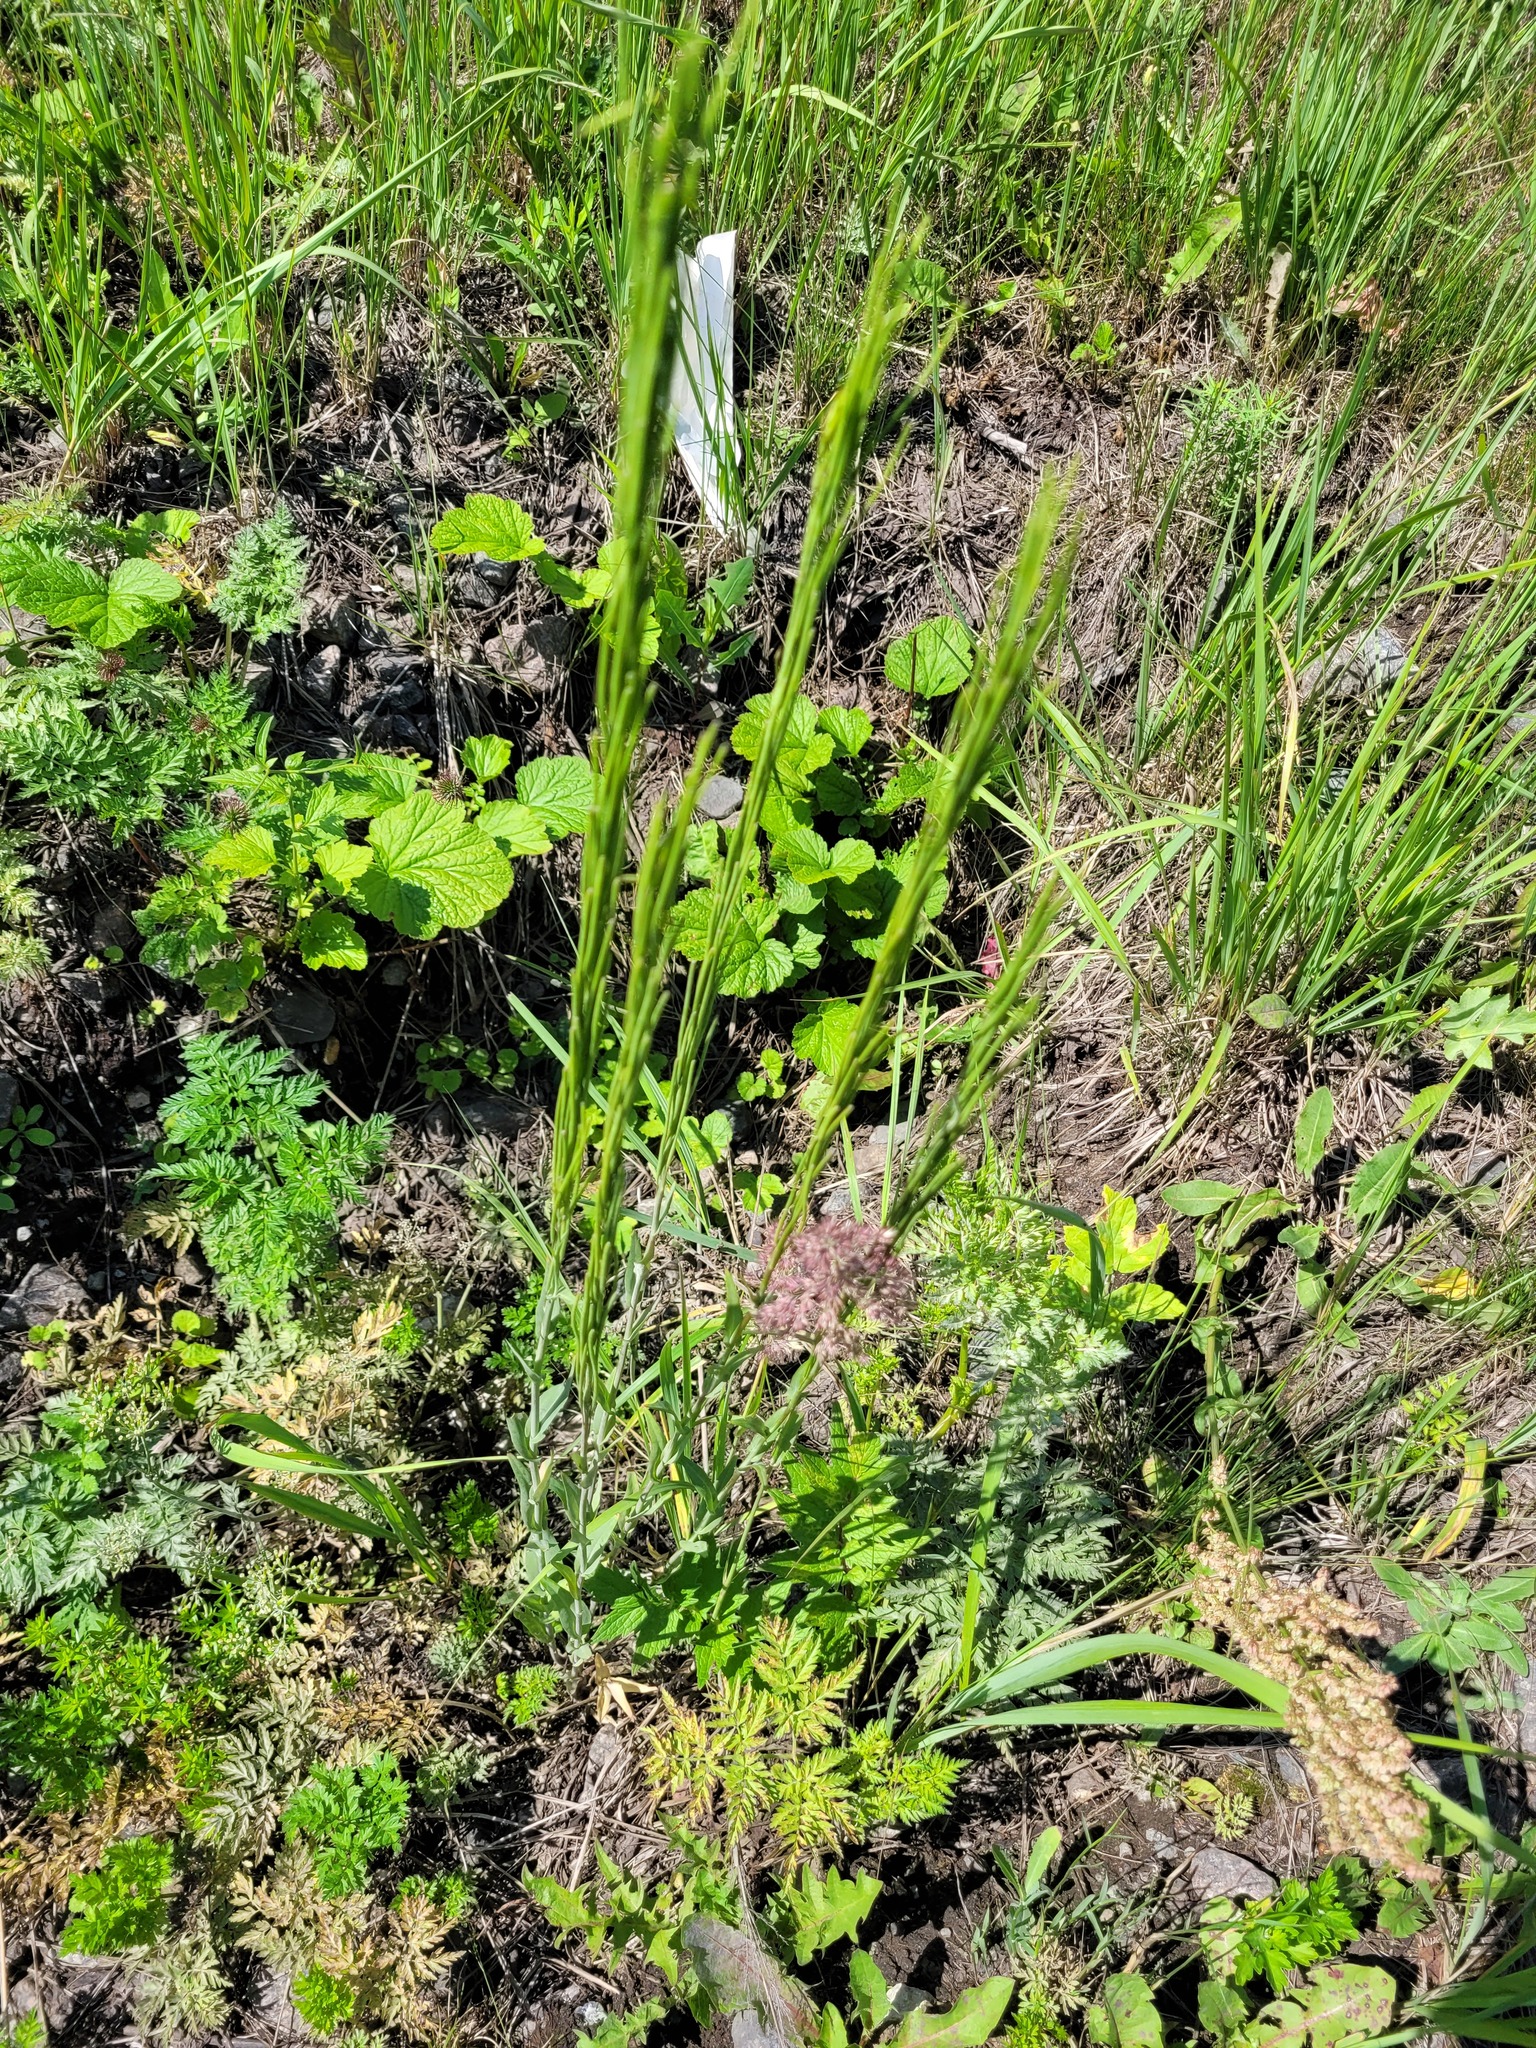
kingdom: Plantae
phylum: Tracheophyta
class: Magnoliopsida
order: Brassicales
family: Brassicaceae
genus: Turritis
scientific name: Turritis glabra
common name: Tower rockcress
